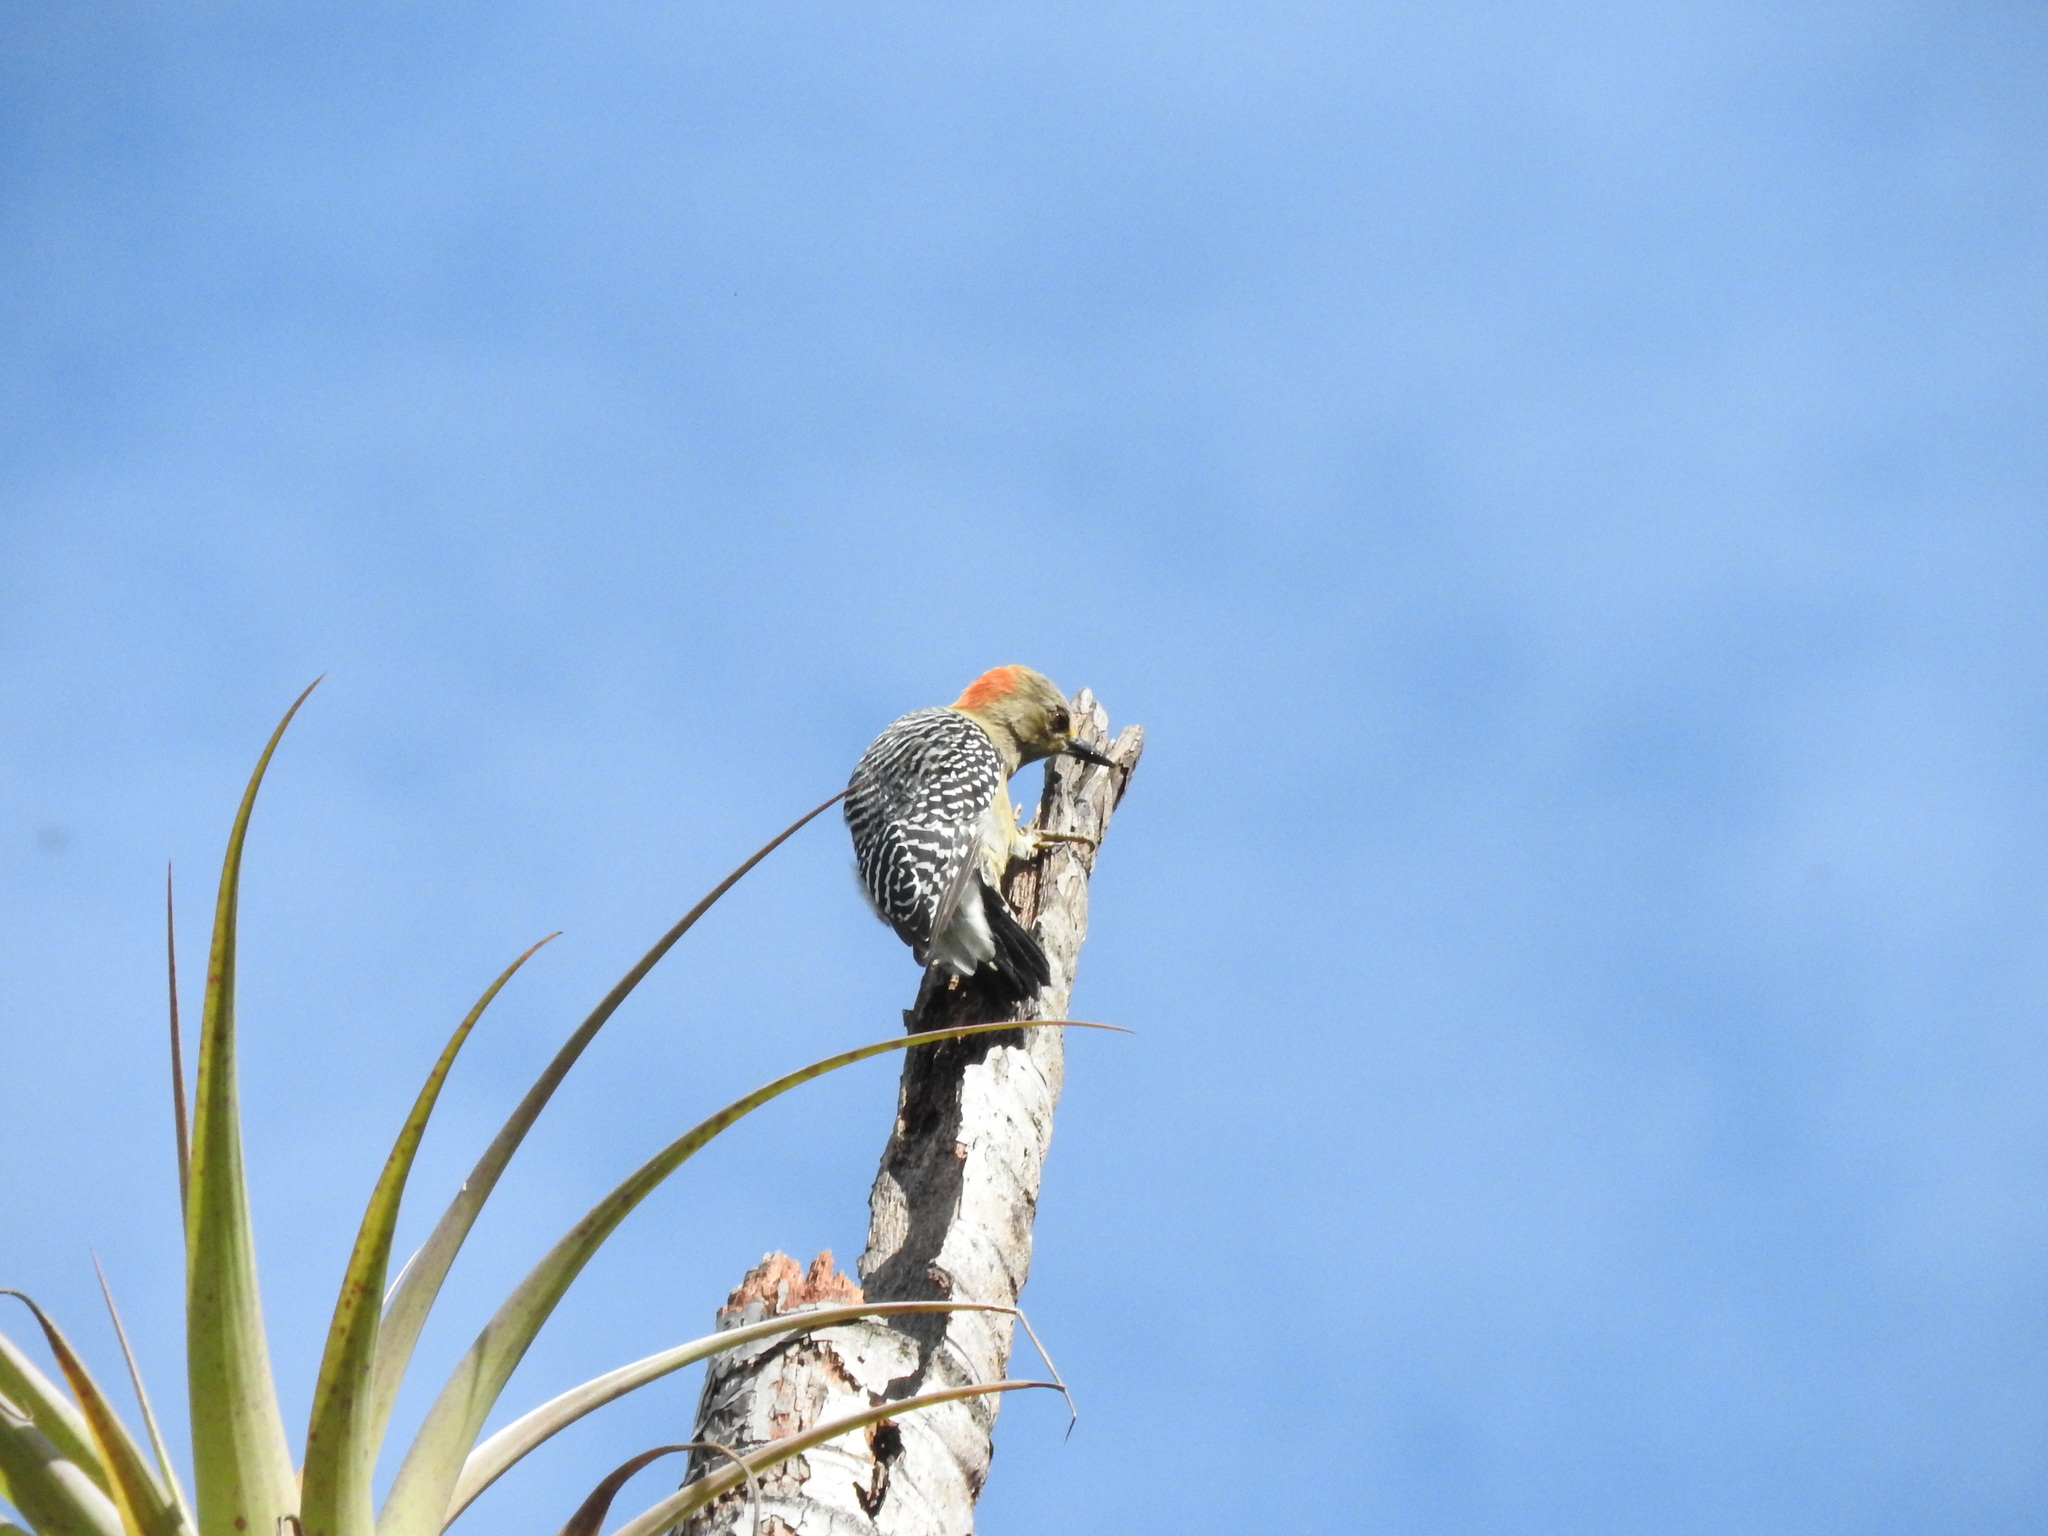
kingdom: Animalia
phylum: Chordata
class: Aves
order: Piciformes
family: Picidae
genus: Melanerpes
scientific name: Melanerpes rubricapillus
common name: Red-crowned woodpecker
